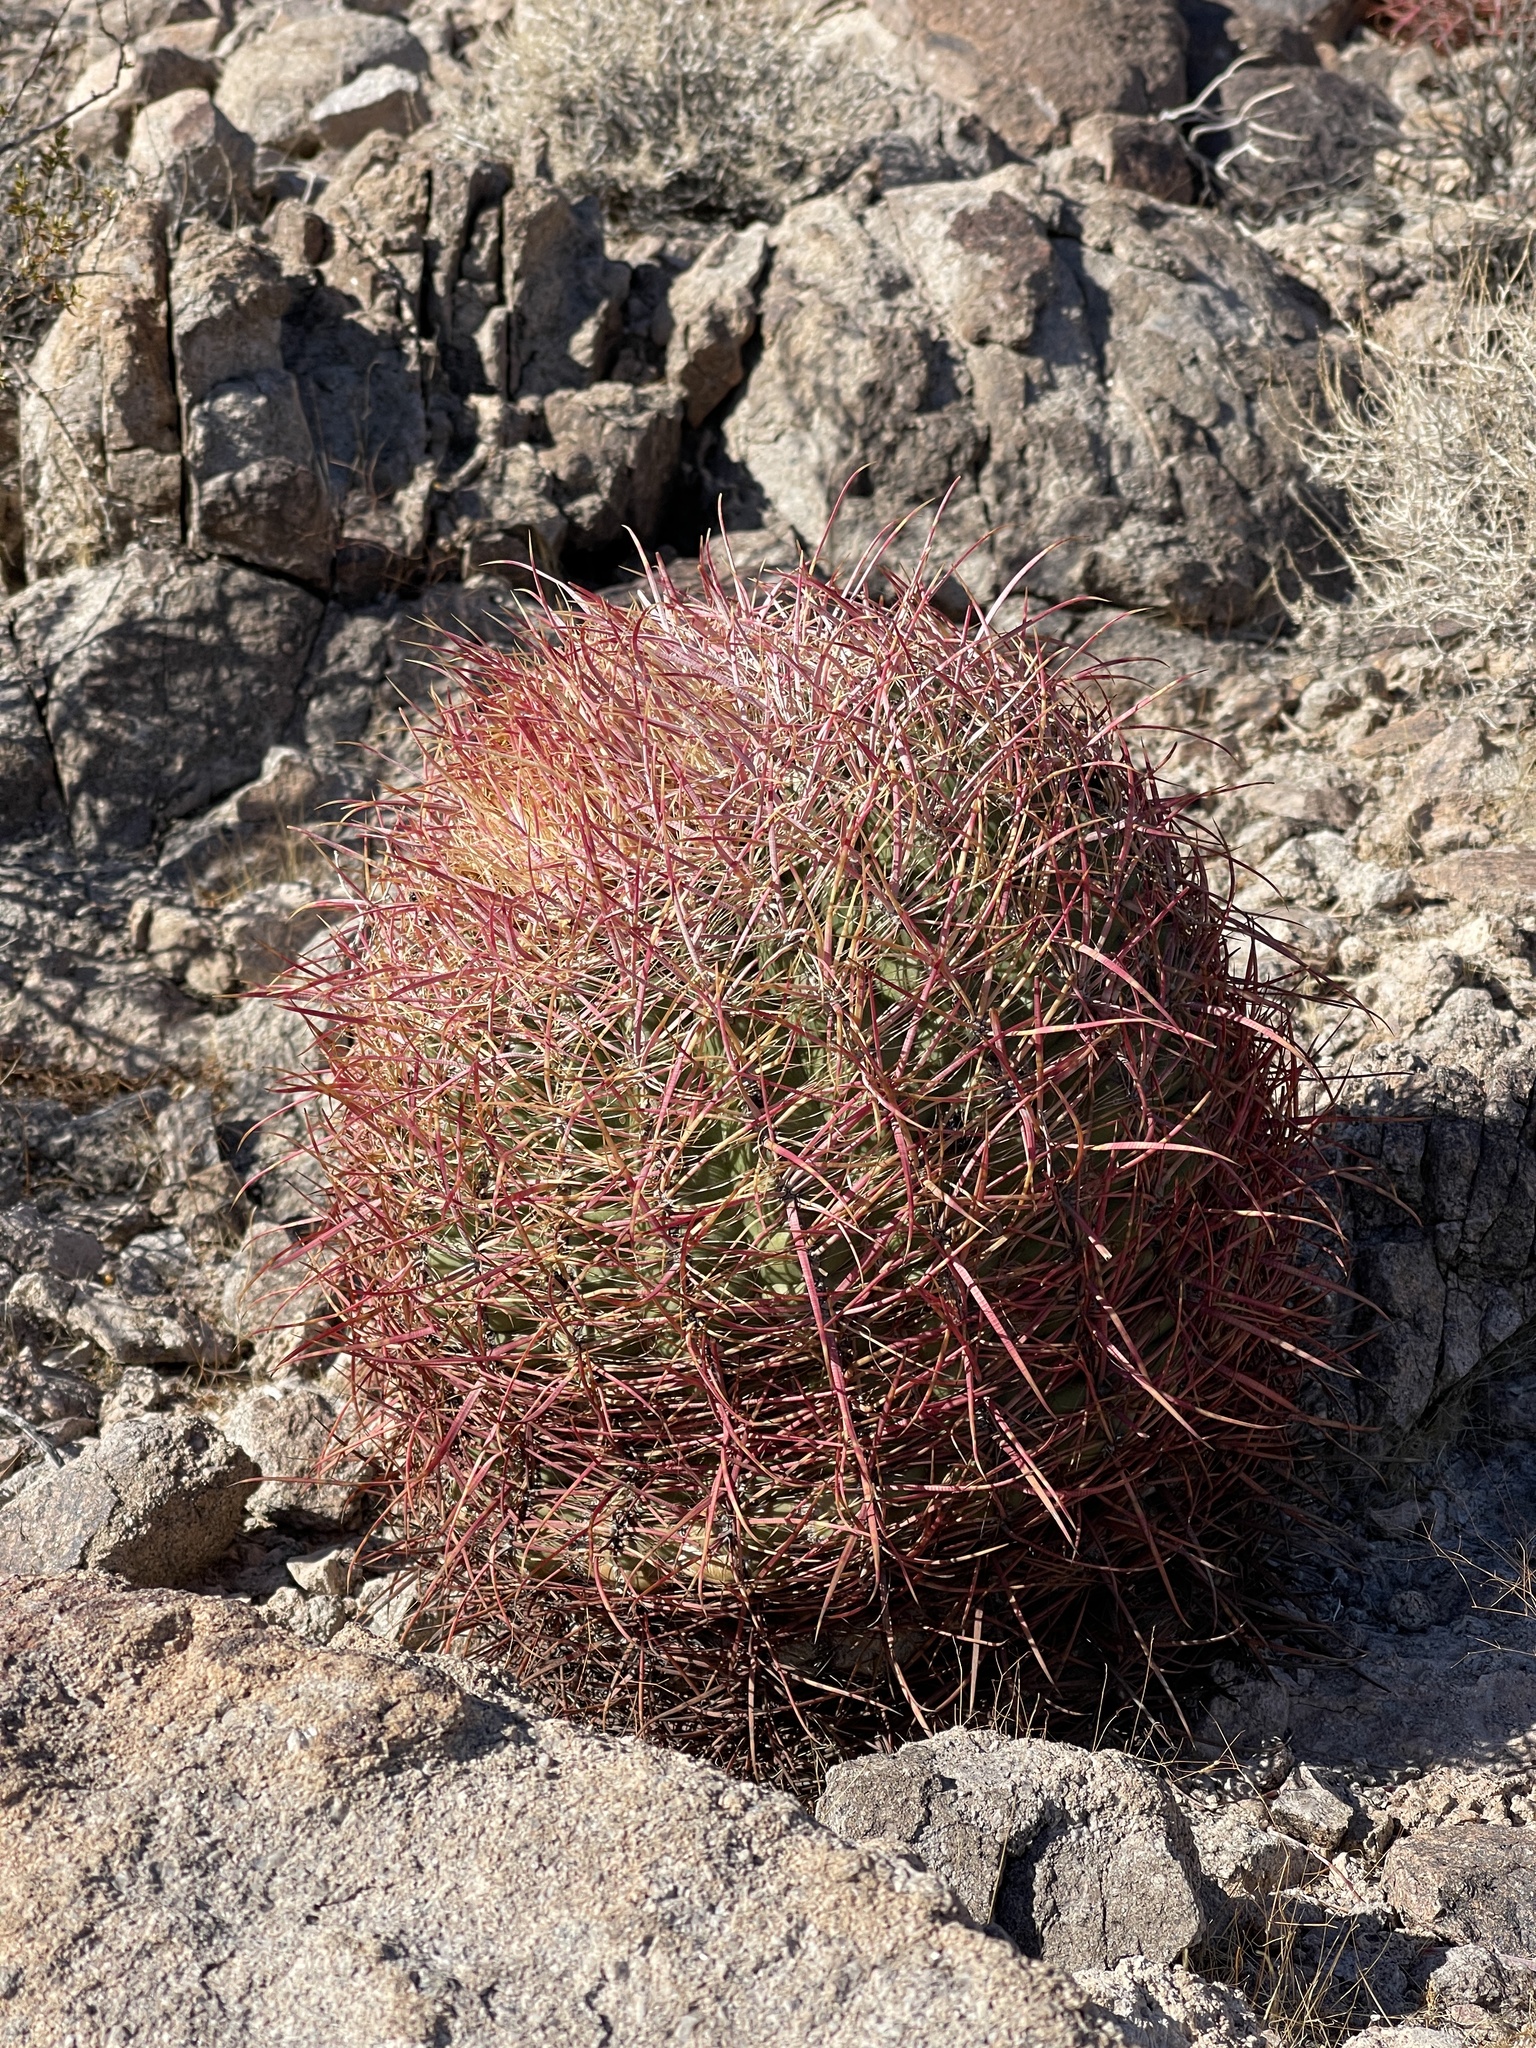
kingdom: Plantae
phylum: Tracheophyta
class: Magnoliopsida
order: Caryophyllales
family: Cactaceae
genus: Ferocactus
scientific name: Ferocactus cylindraceus
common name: California barrel cactus
